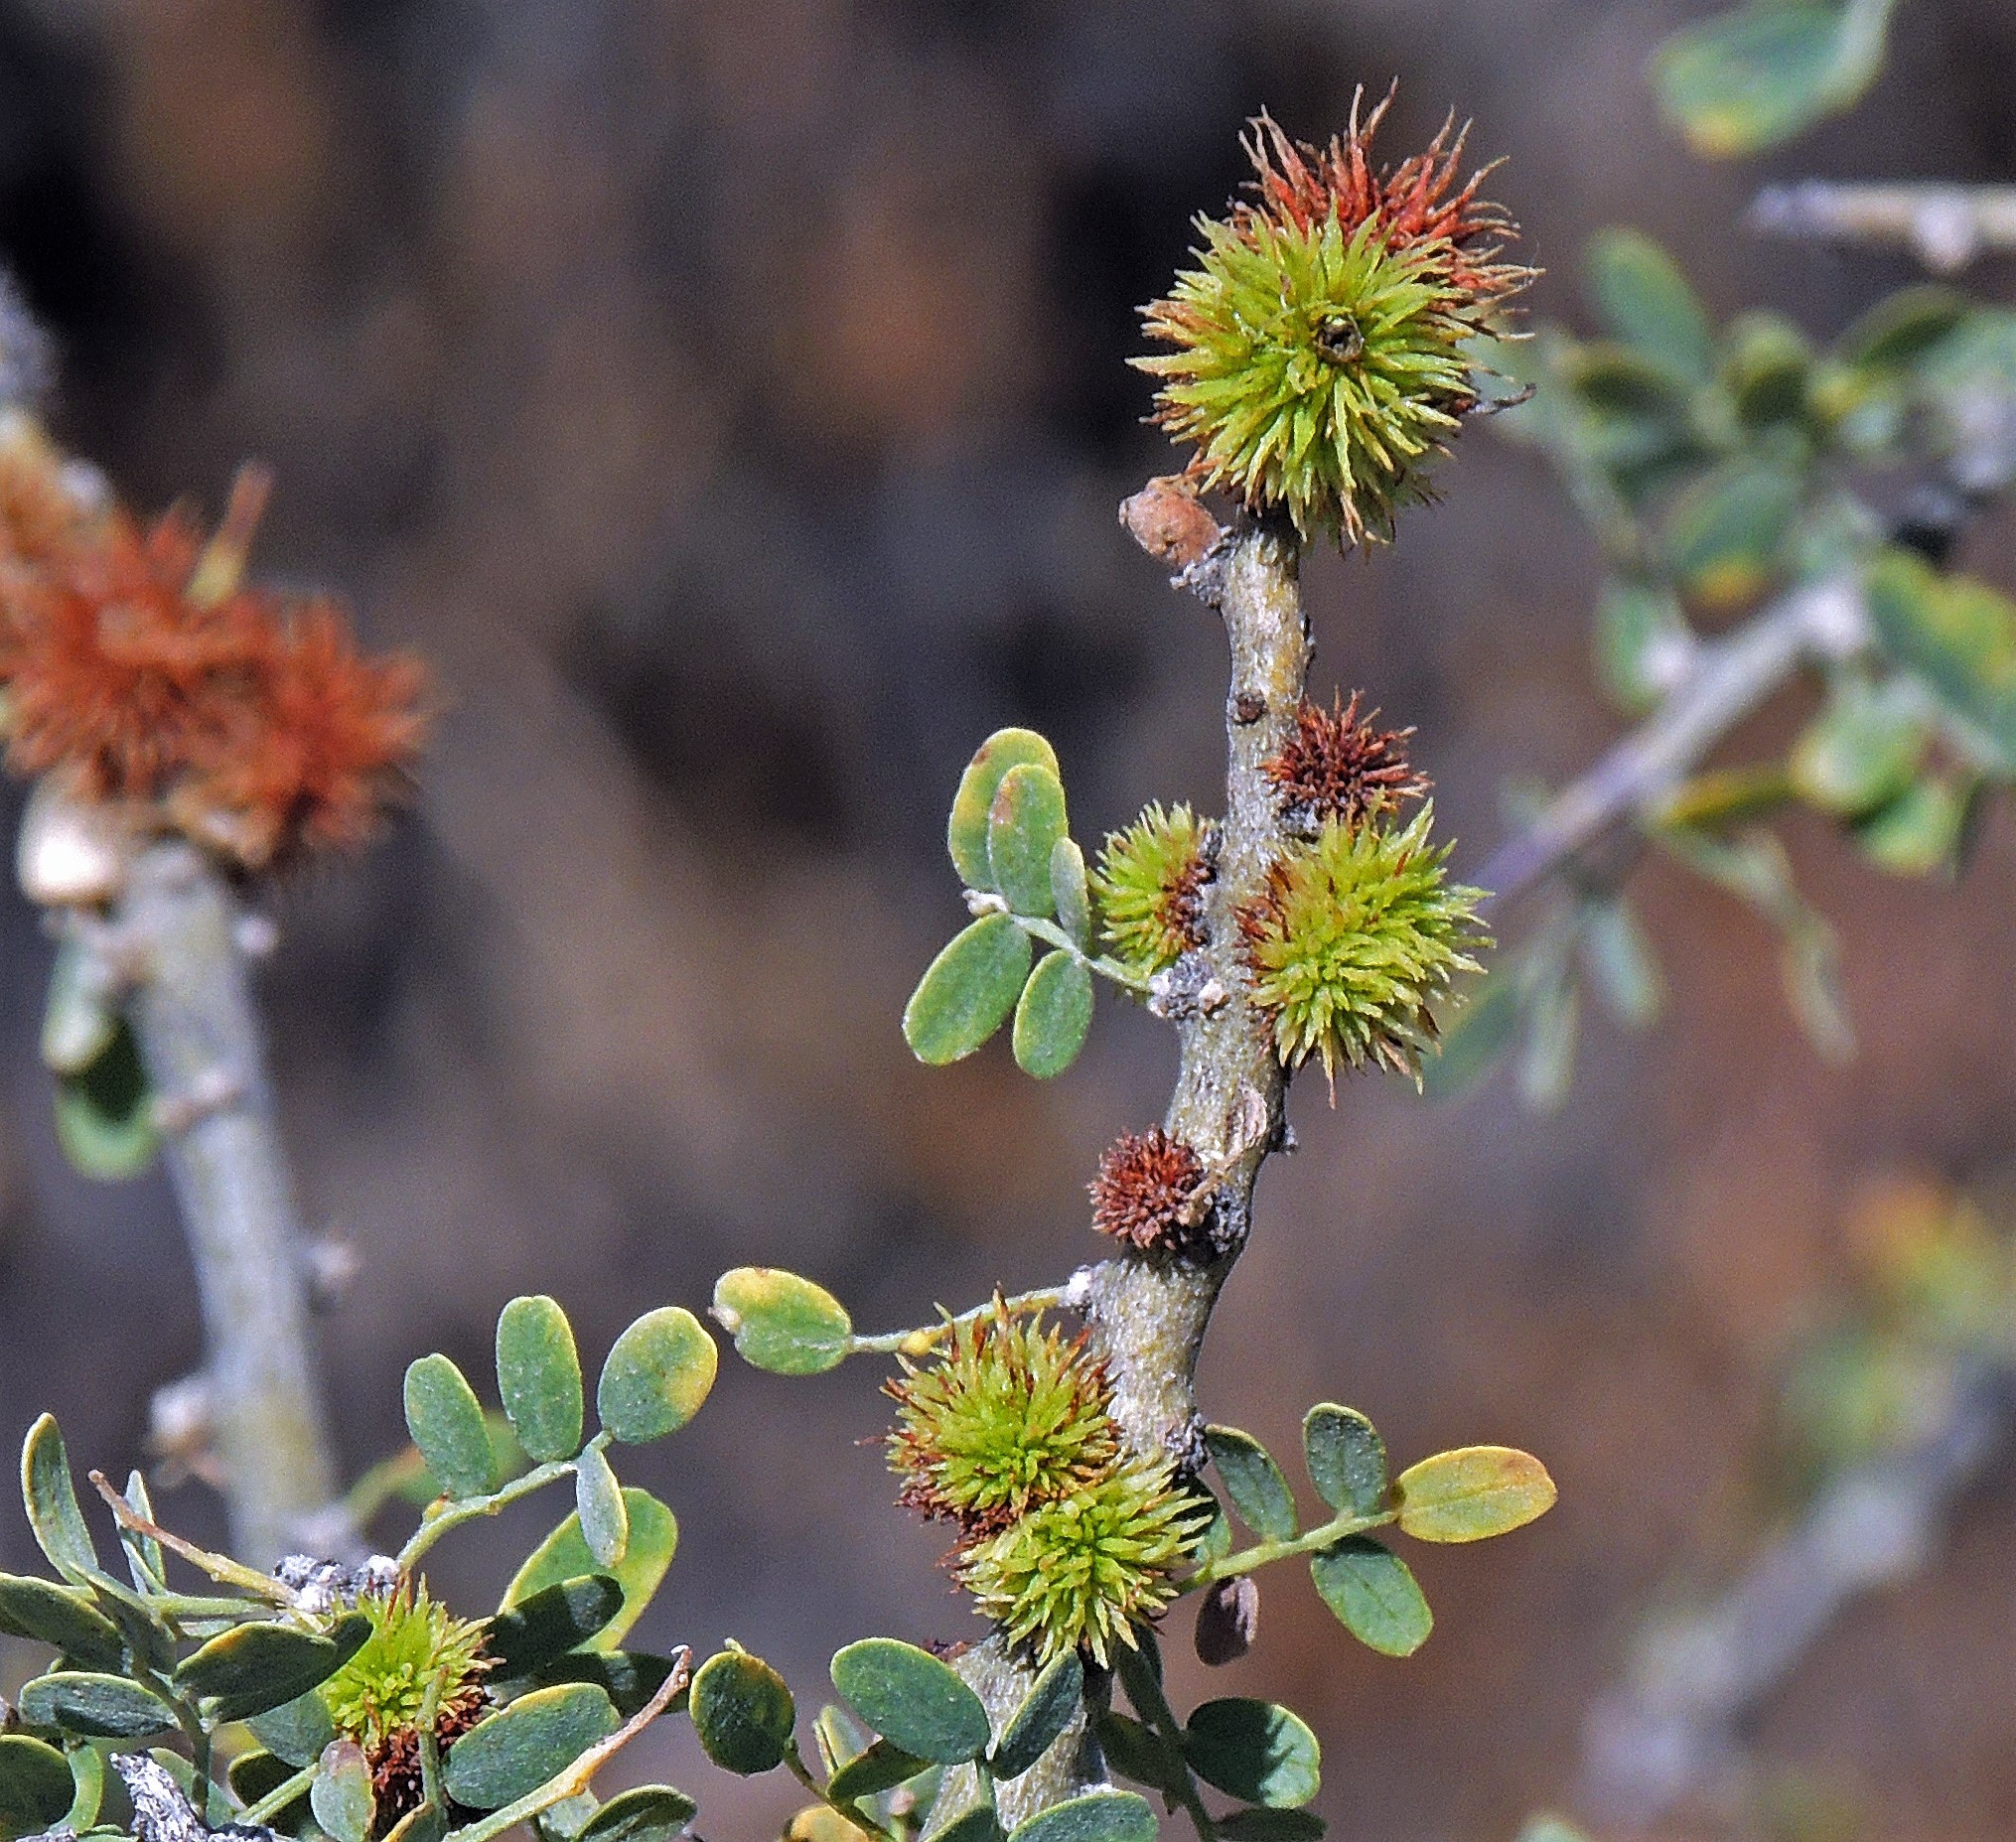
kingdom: Plantae
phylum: Tracheophyta
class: Magnoliopsida
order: Fabales
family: Fabaceae
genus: Geoffroea
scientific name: Geoffroea decorticans
